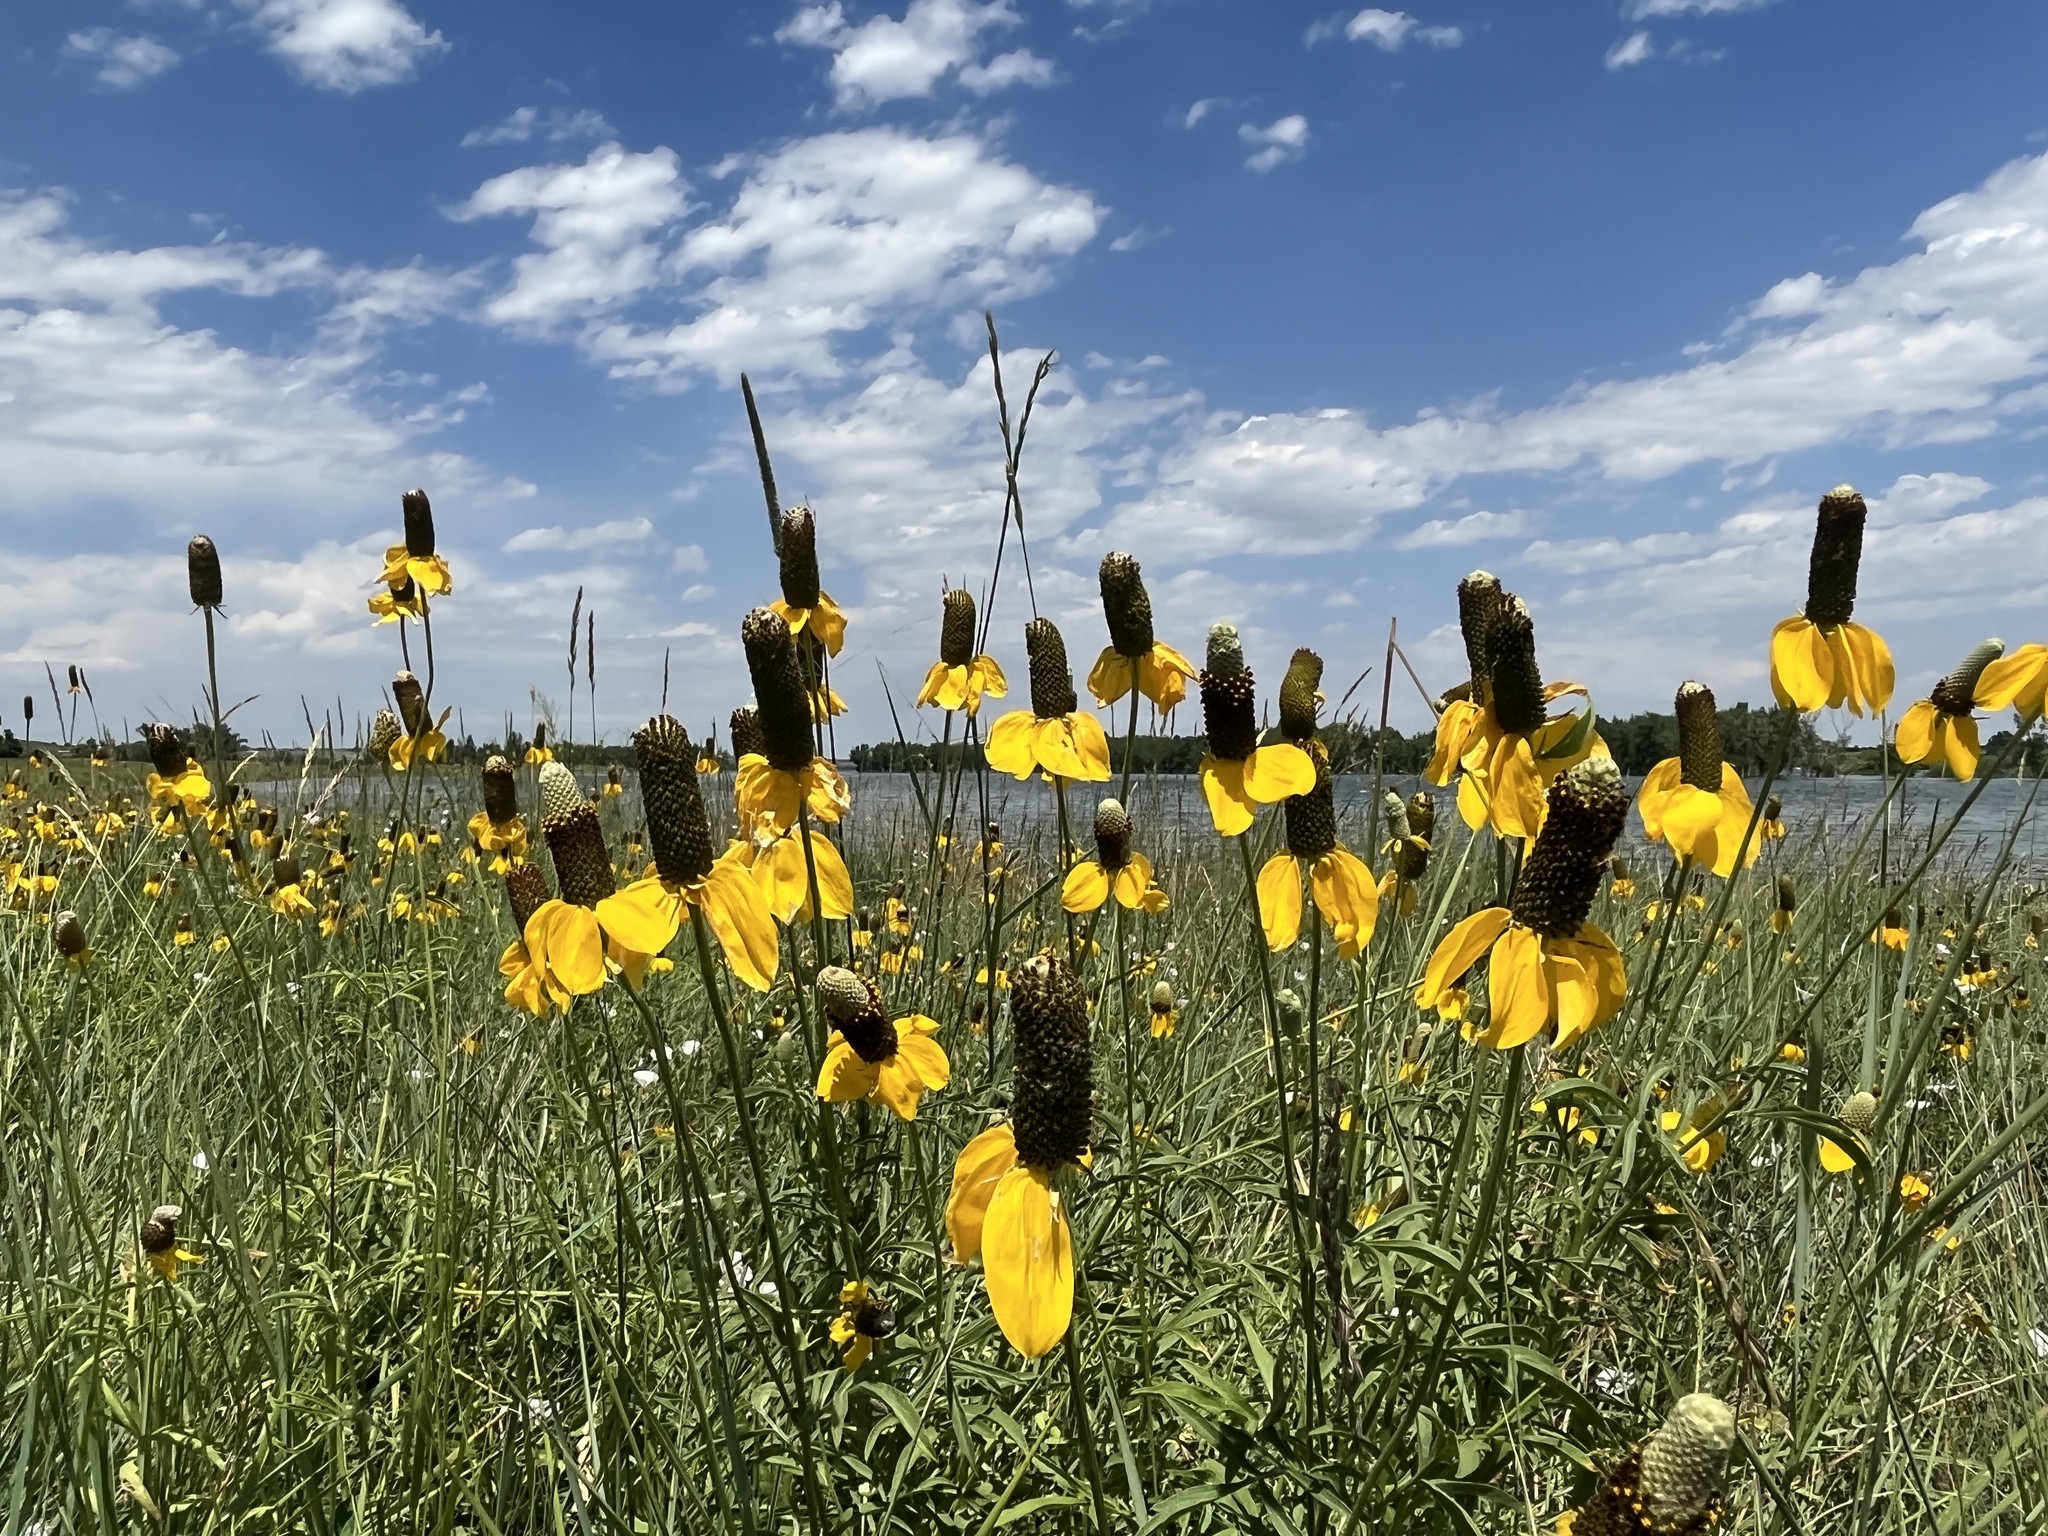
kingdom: Plantae
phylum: Tracheophyta
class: Magnoliopsida
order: Asterales
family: Asteraceae
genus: Ratibida
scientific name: Ratibida columnifera
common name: Prairie coneflower
